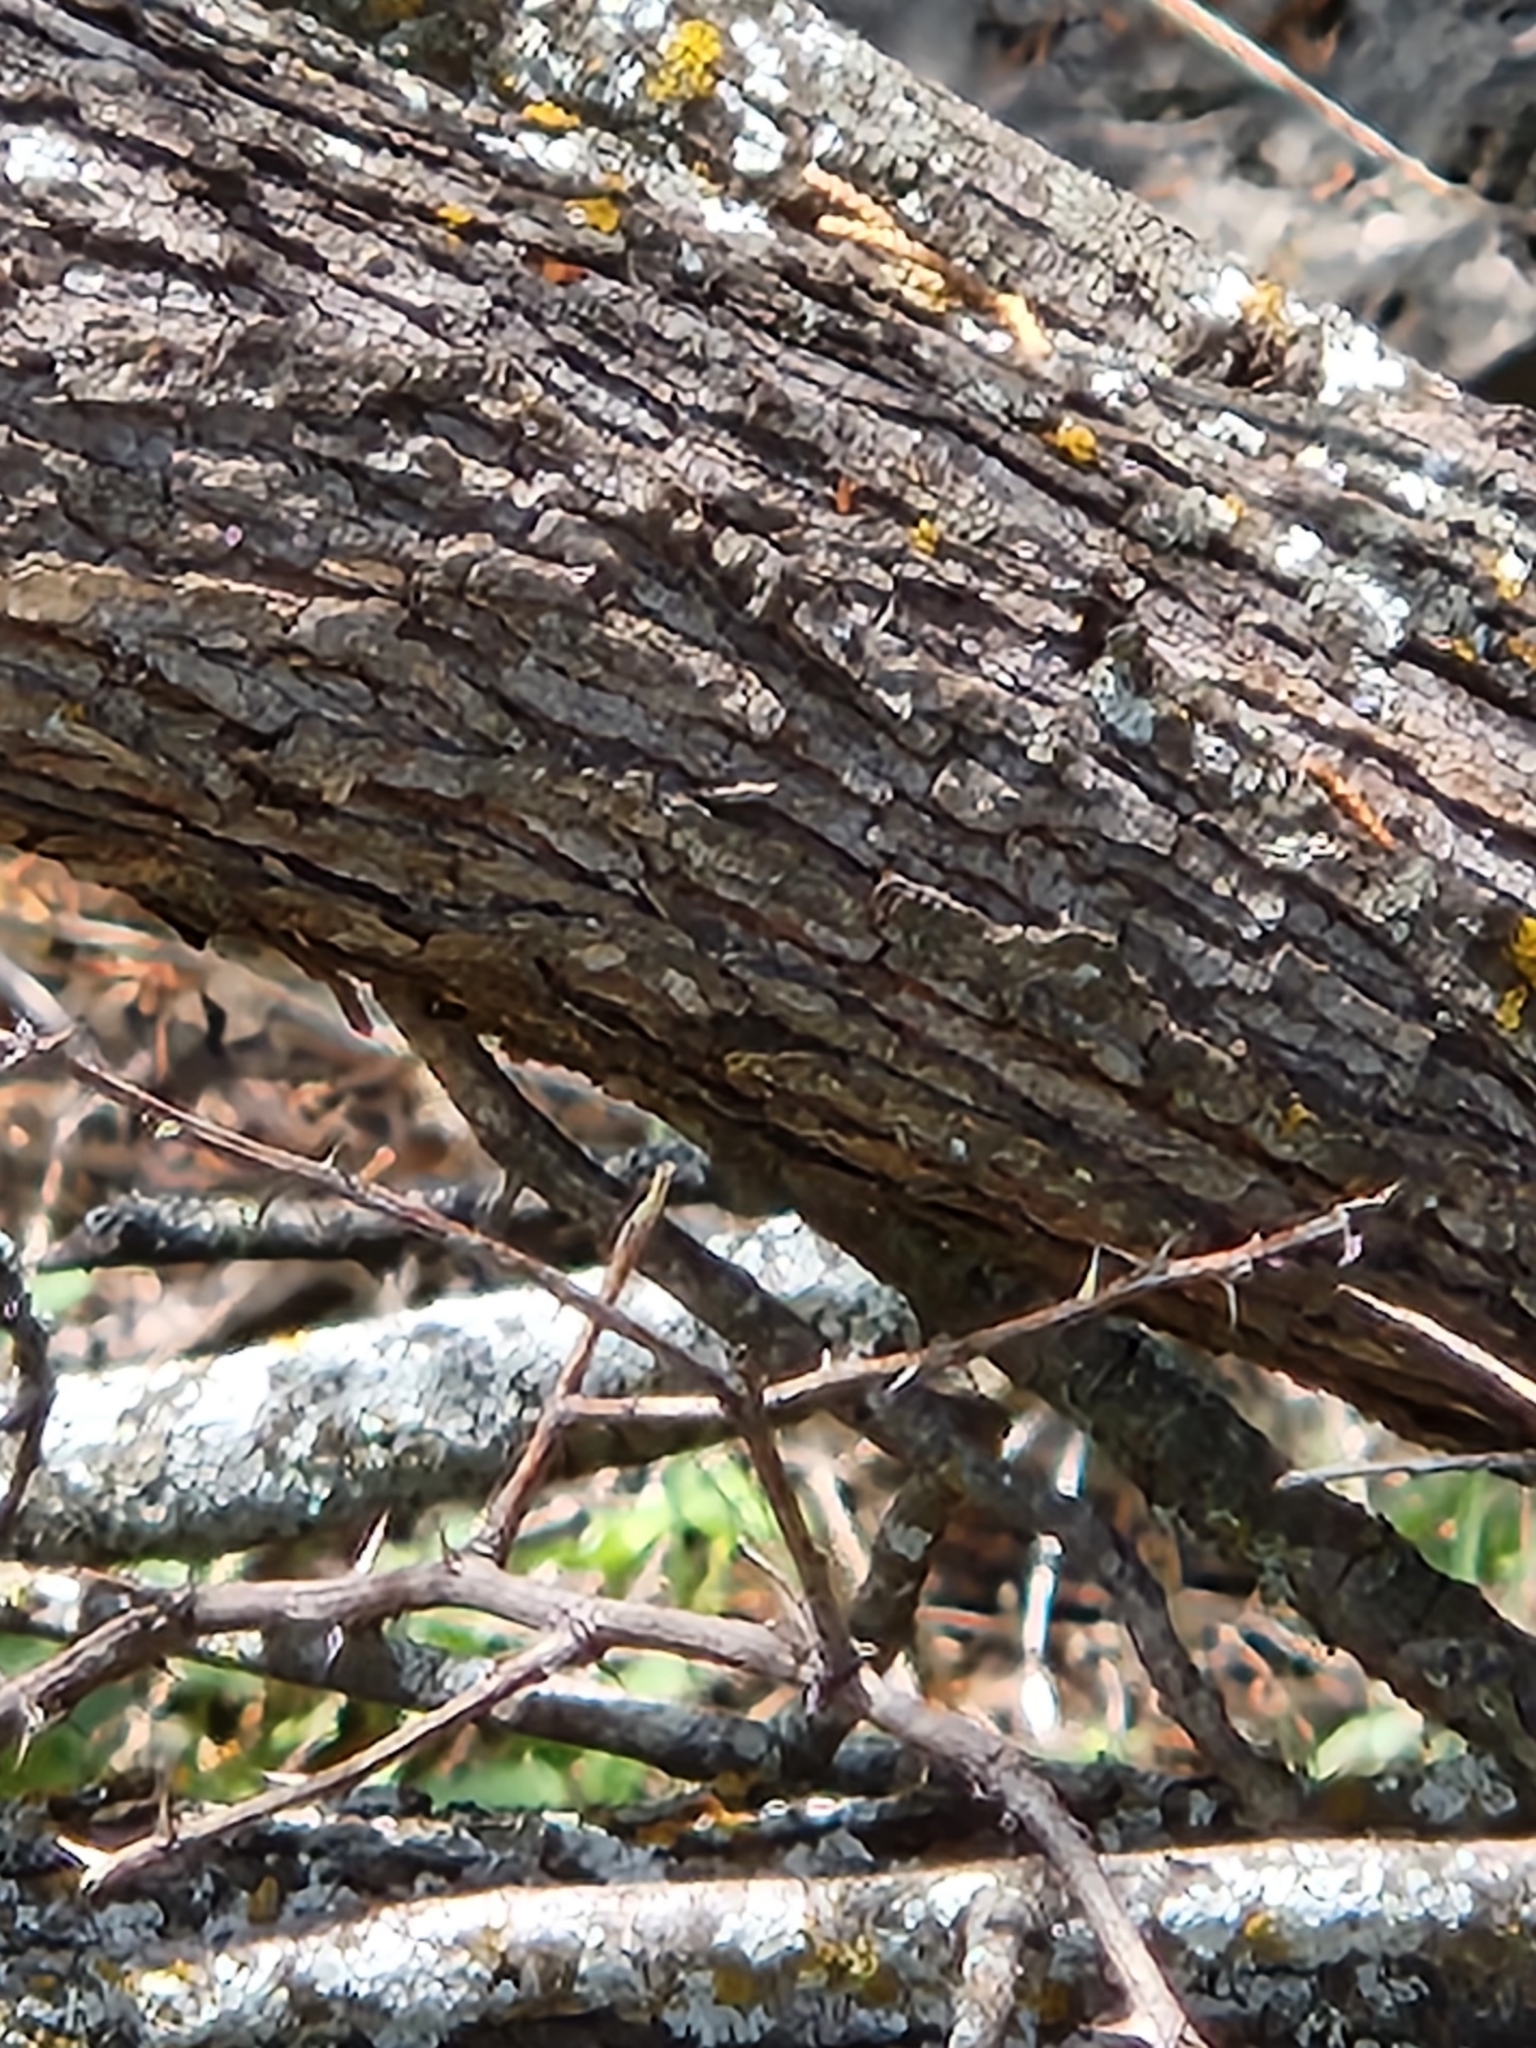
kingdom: Plantae
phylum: Tracheophyta
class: Magnoliopsida
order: Fabales
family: Fabaceae
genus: Senegalia
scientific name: Senegalia roemeriana
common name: Roemer's acacia
